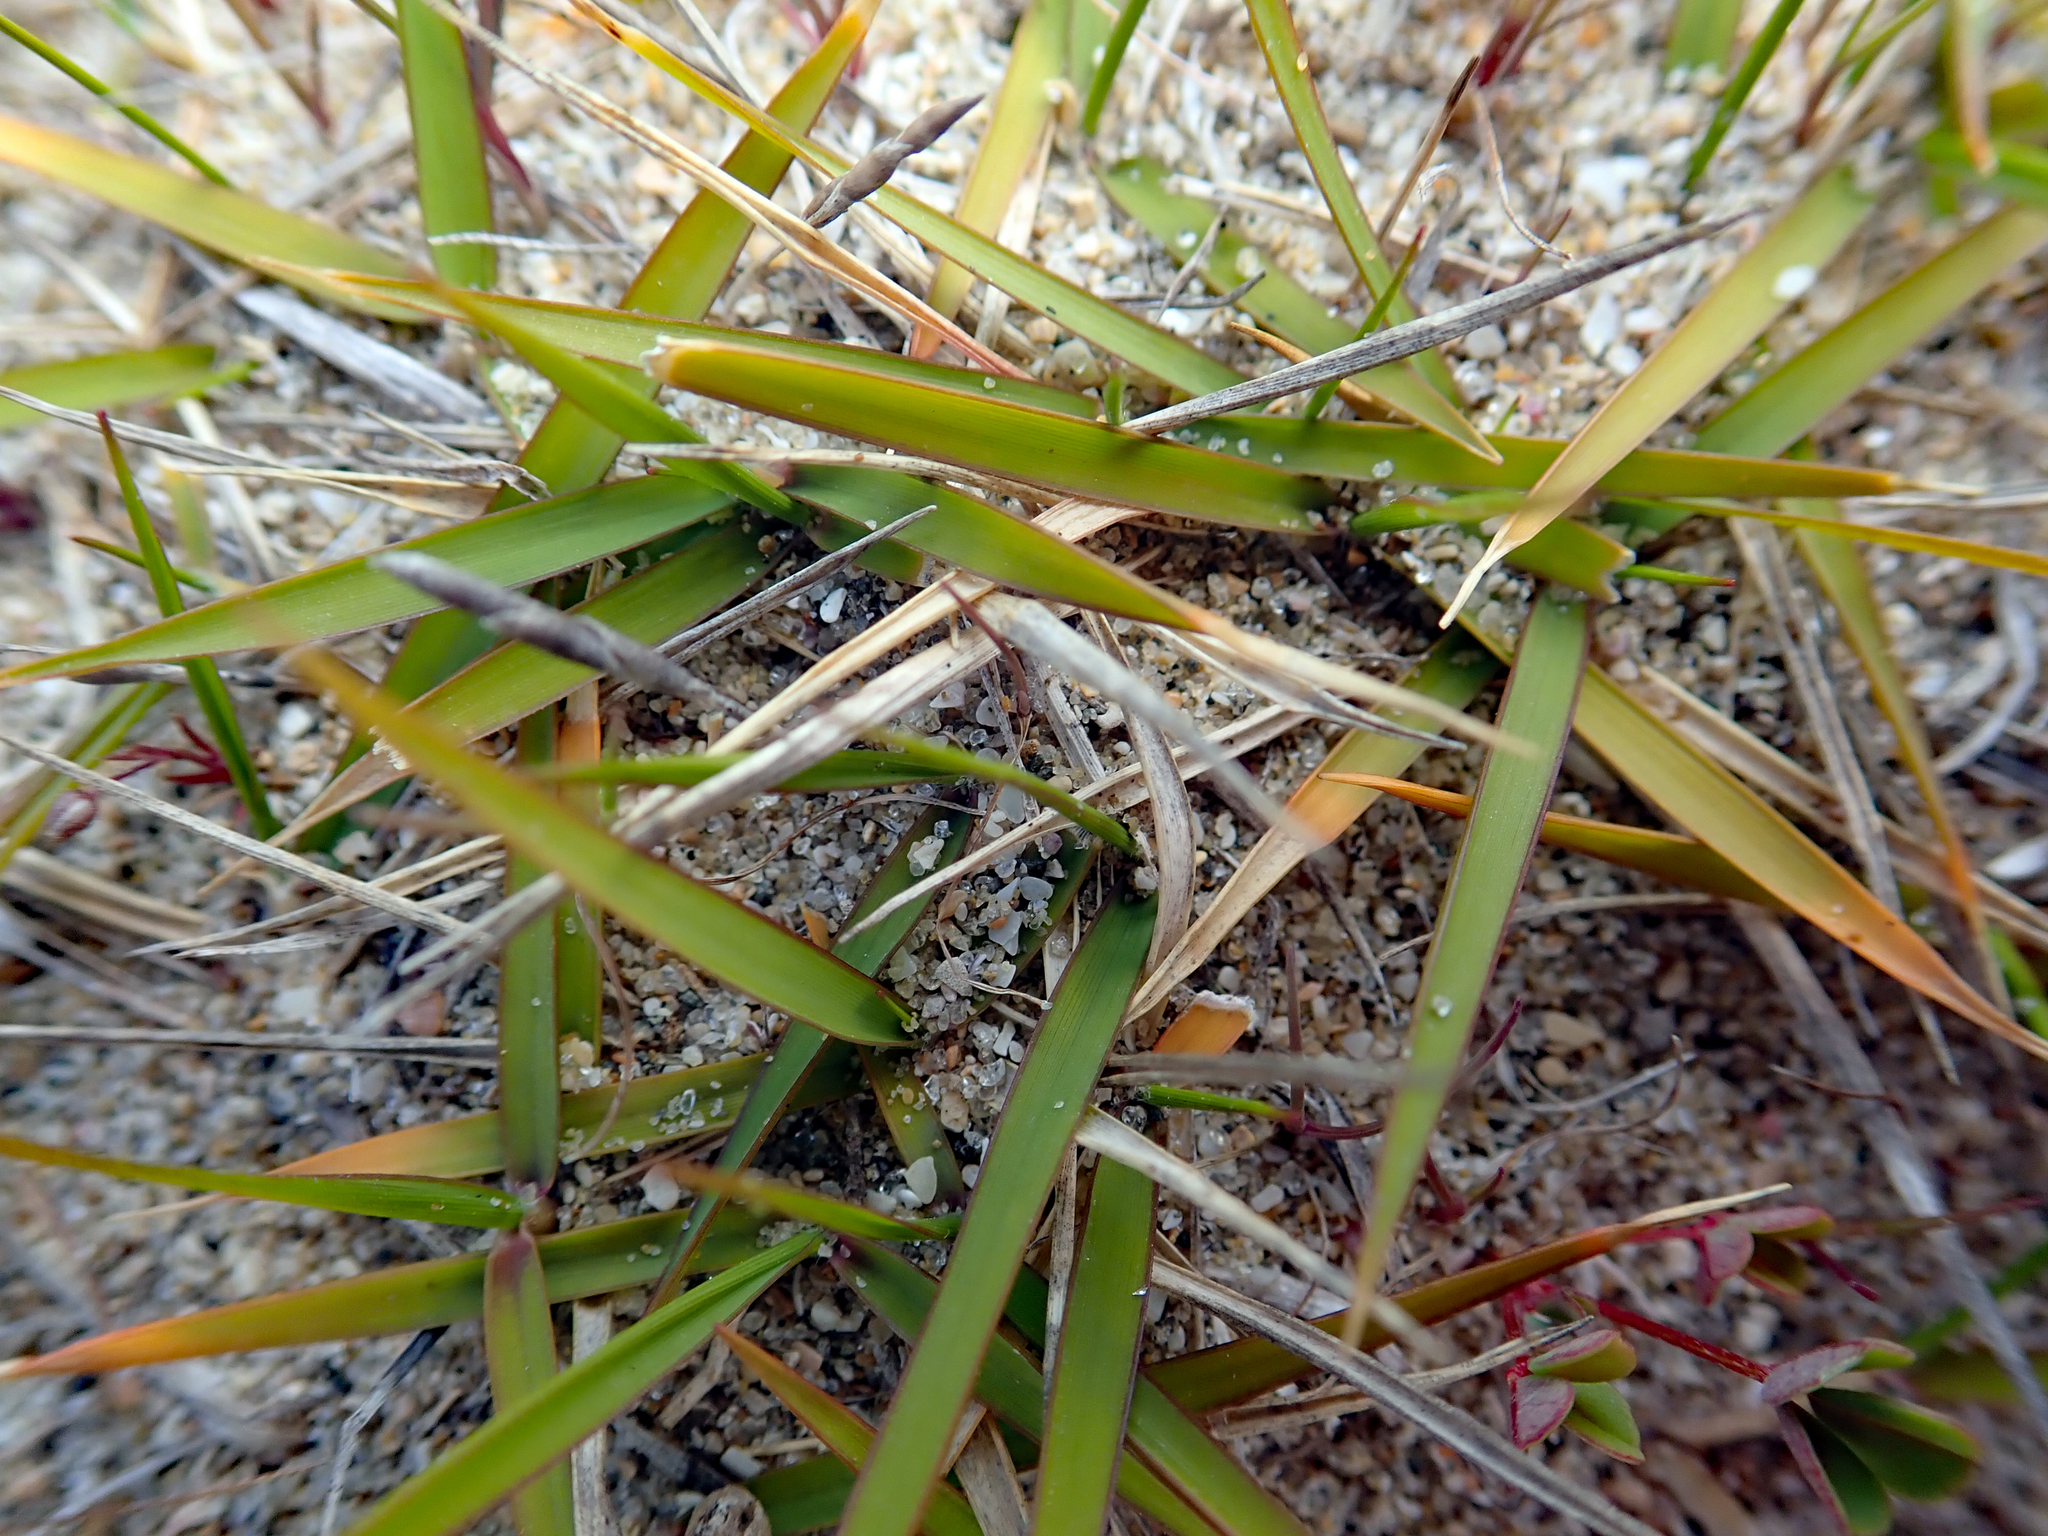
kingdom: Plantae
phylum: Tracheophyta
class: Liliopsida
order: Poales
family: Poaceae
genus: Zoysia
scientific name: Zoysia pauciflora
